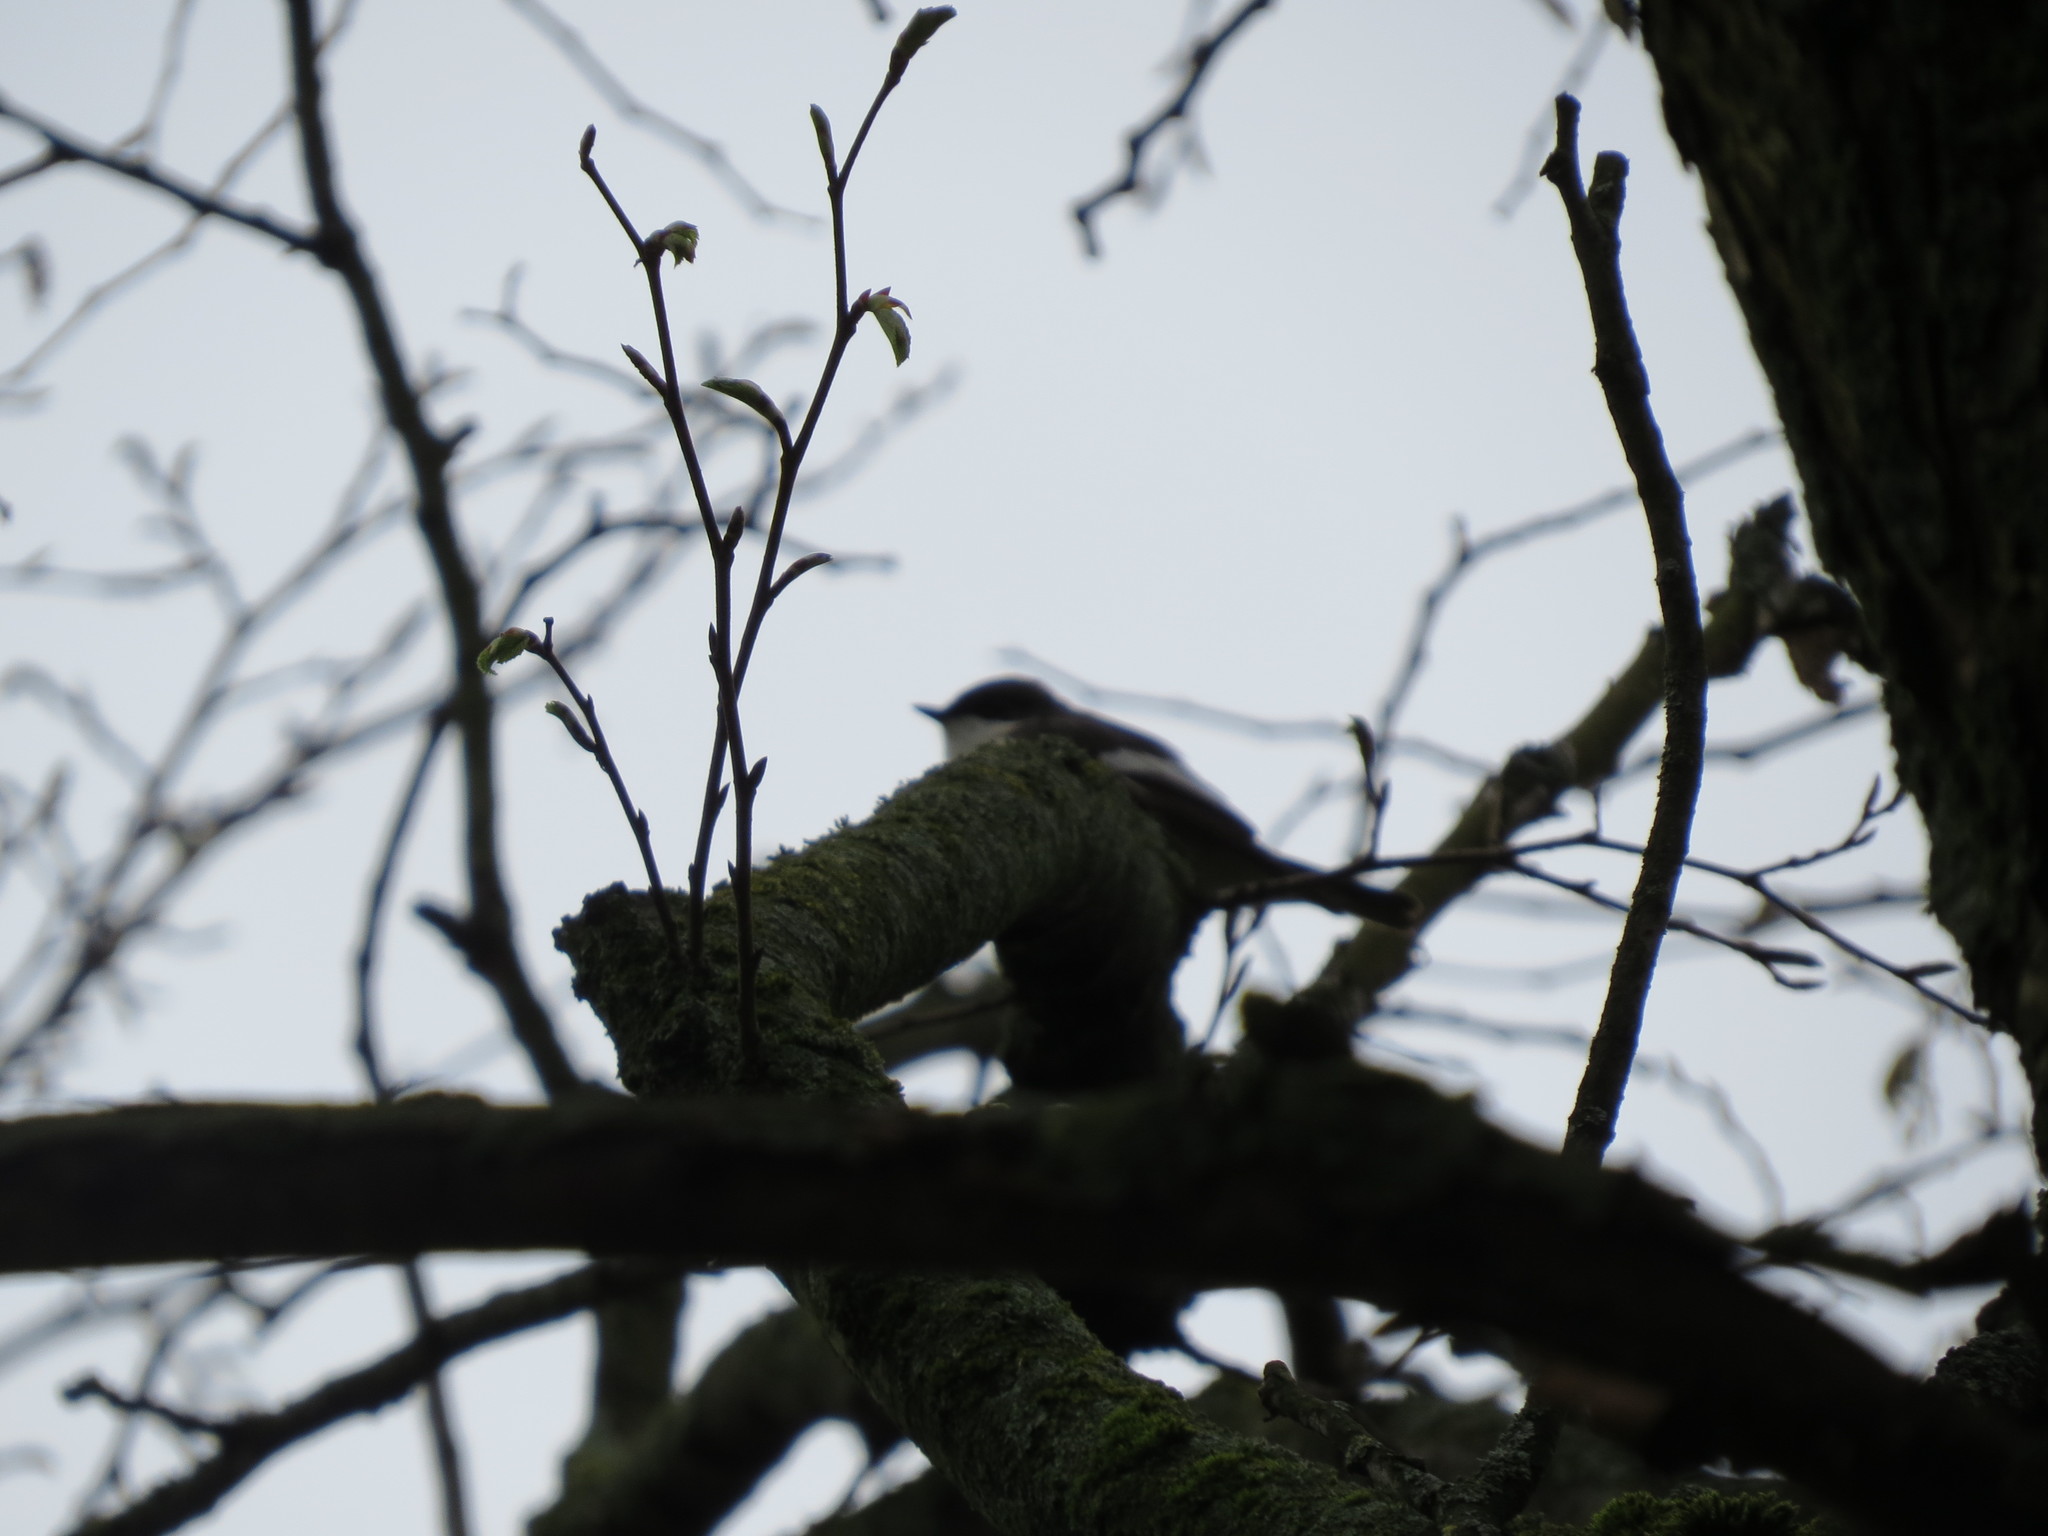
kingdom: Animalia
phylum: Chordata
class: Aves
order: Passeriformes
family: Muscicapidae
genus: Ficedula
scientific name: Ficedula hypoleuca
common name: European pied flycatcher
